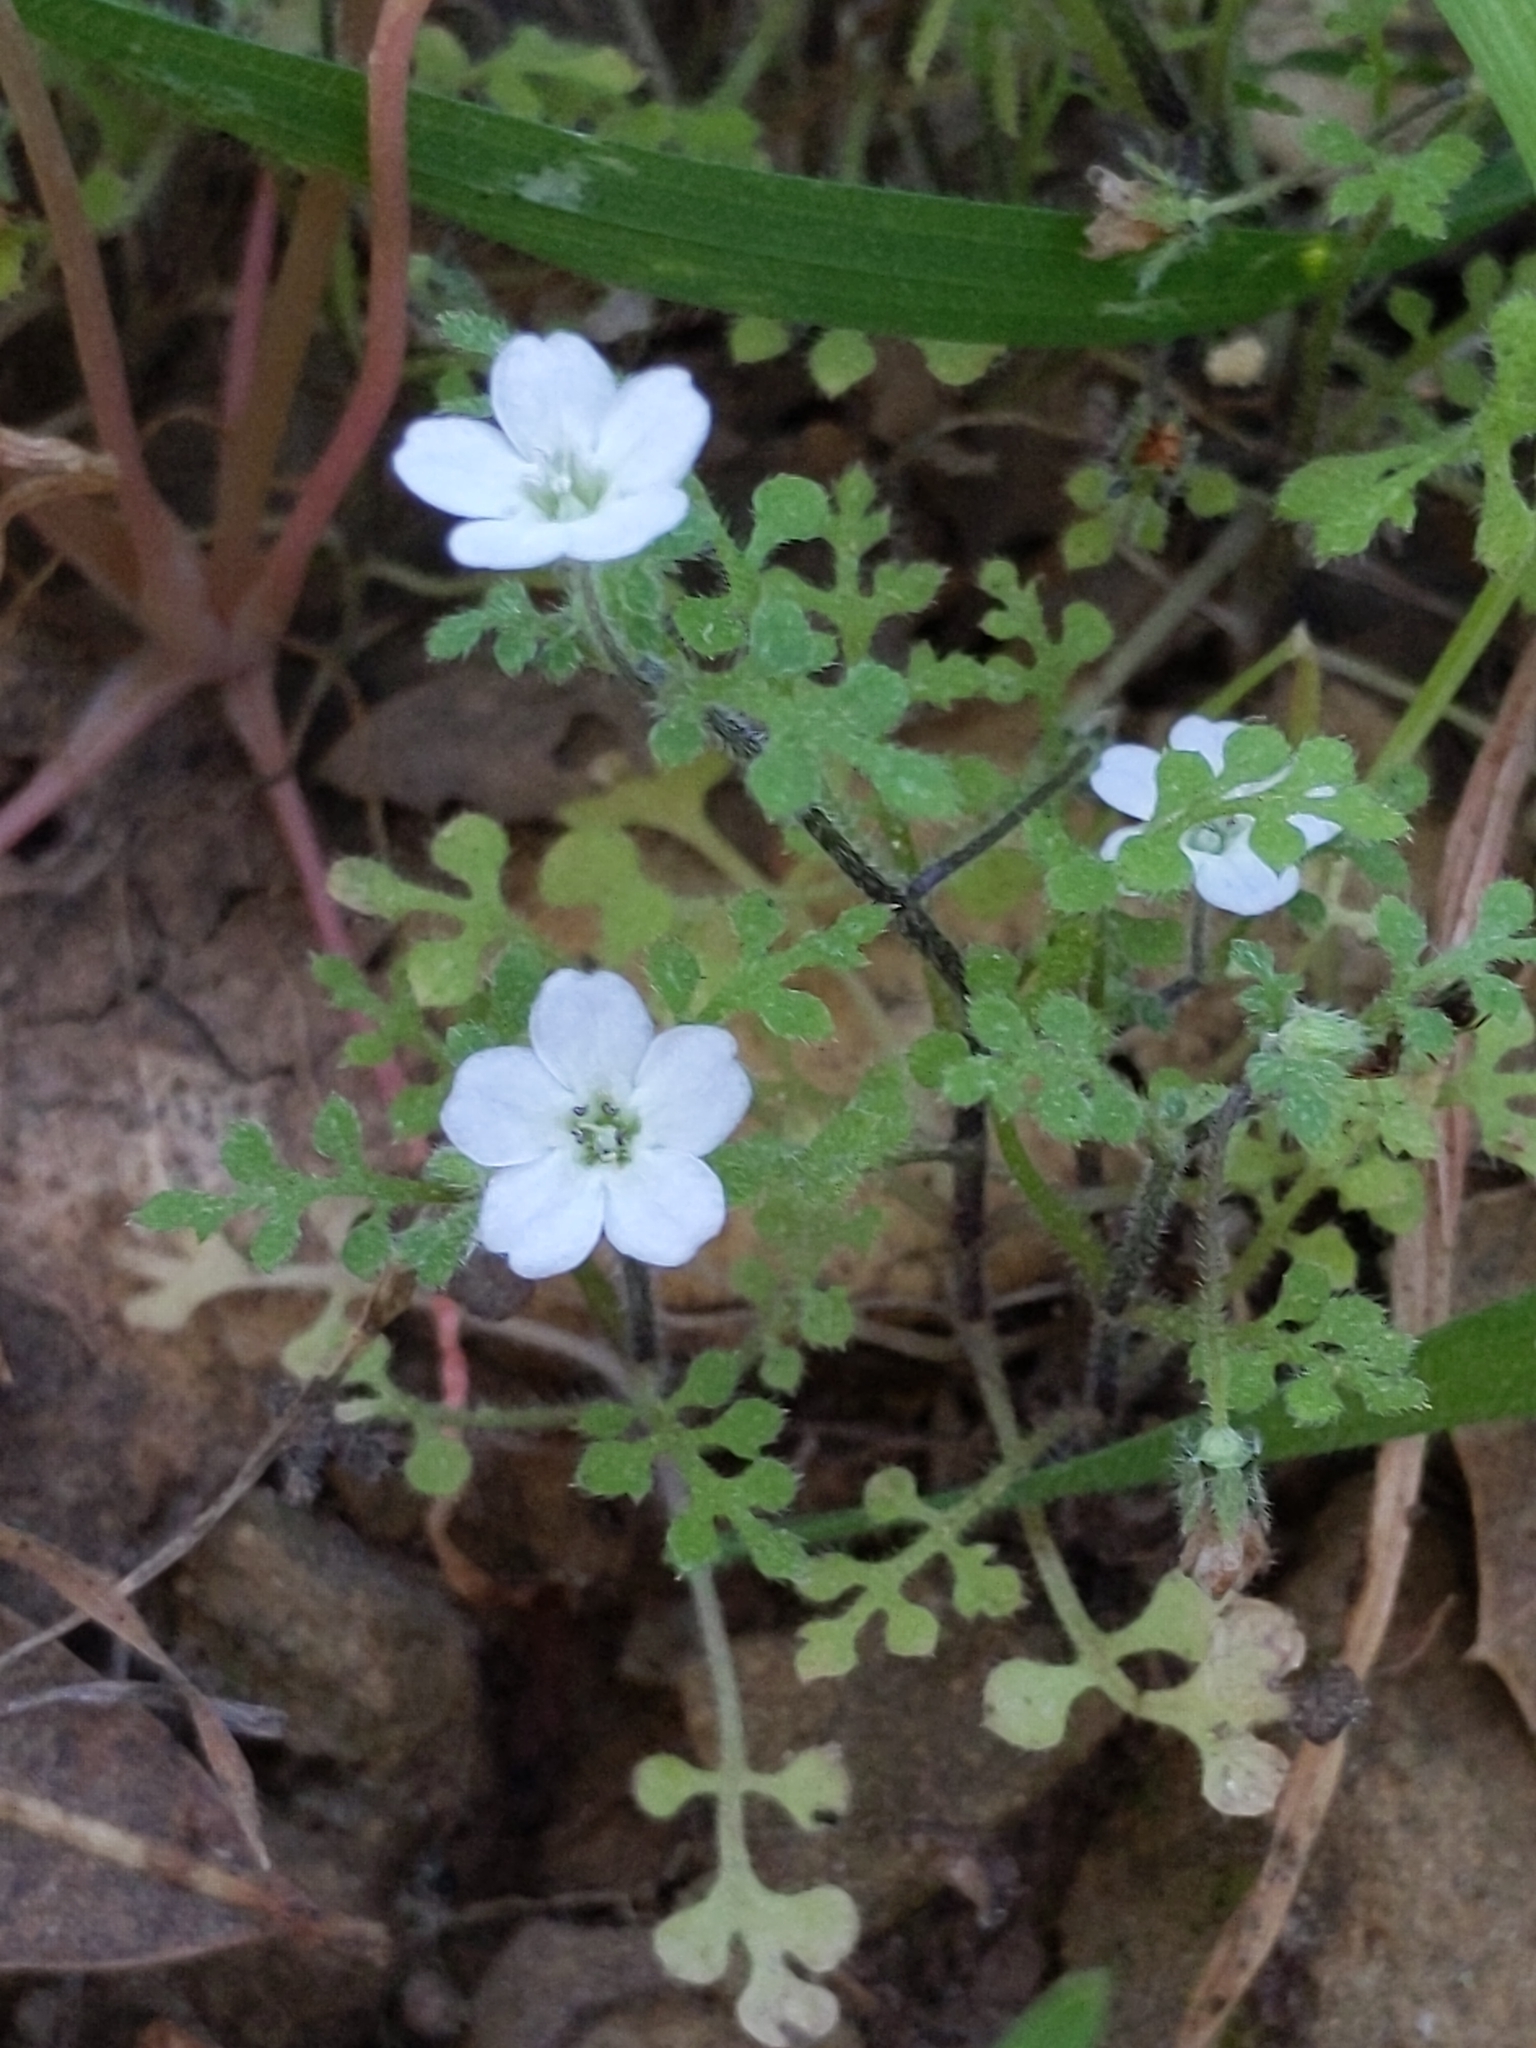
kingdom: Plantae
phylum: Tracheophyta
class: Magnoliopsida
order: Boraginales
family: Hydrophyllaceae
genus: Nemophila
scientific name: Nemophila heterophylla
